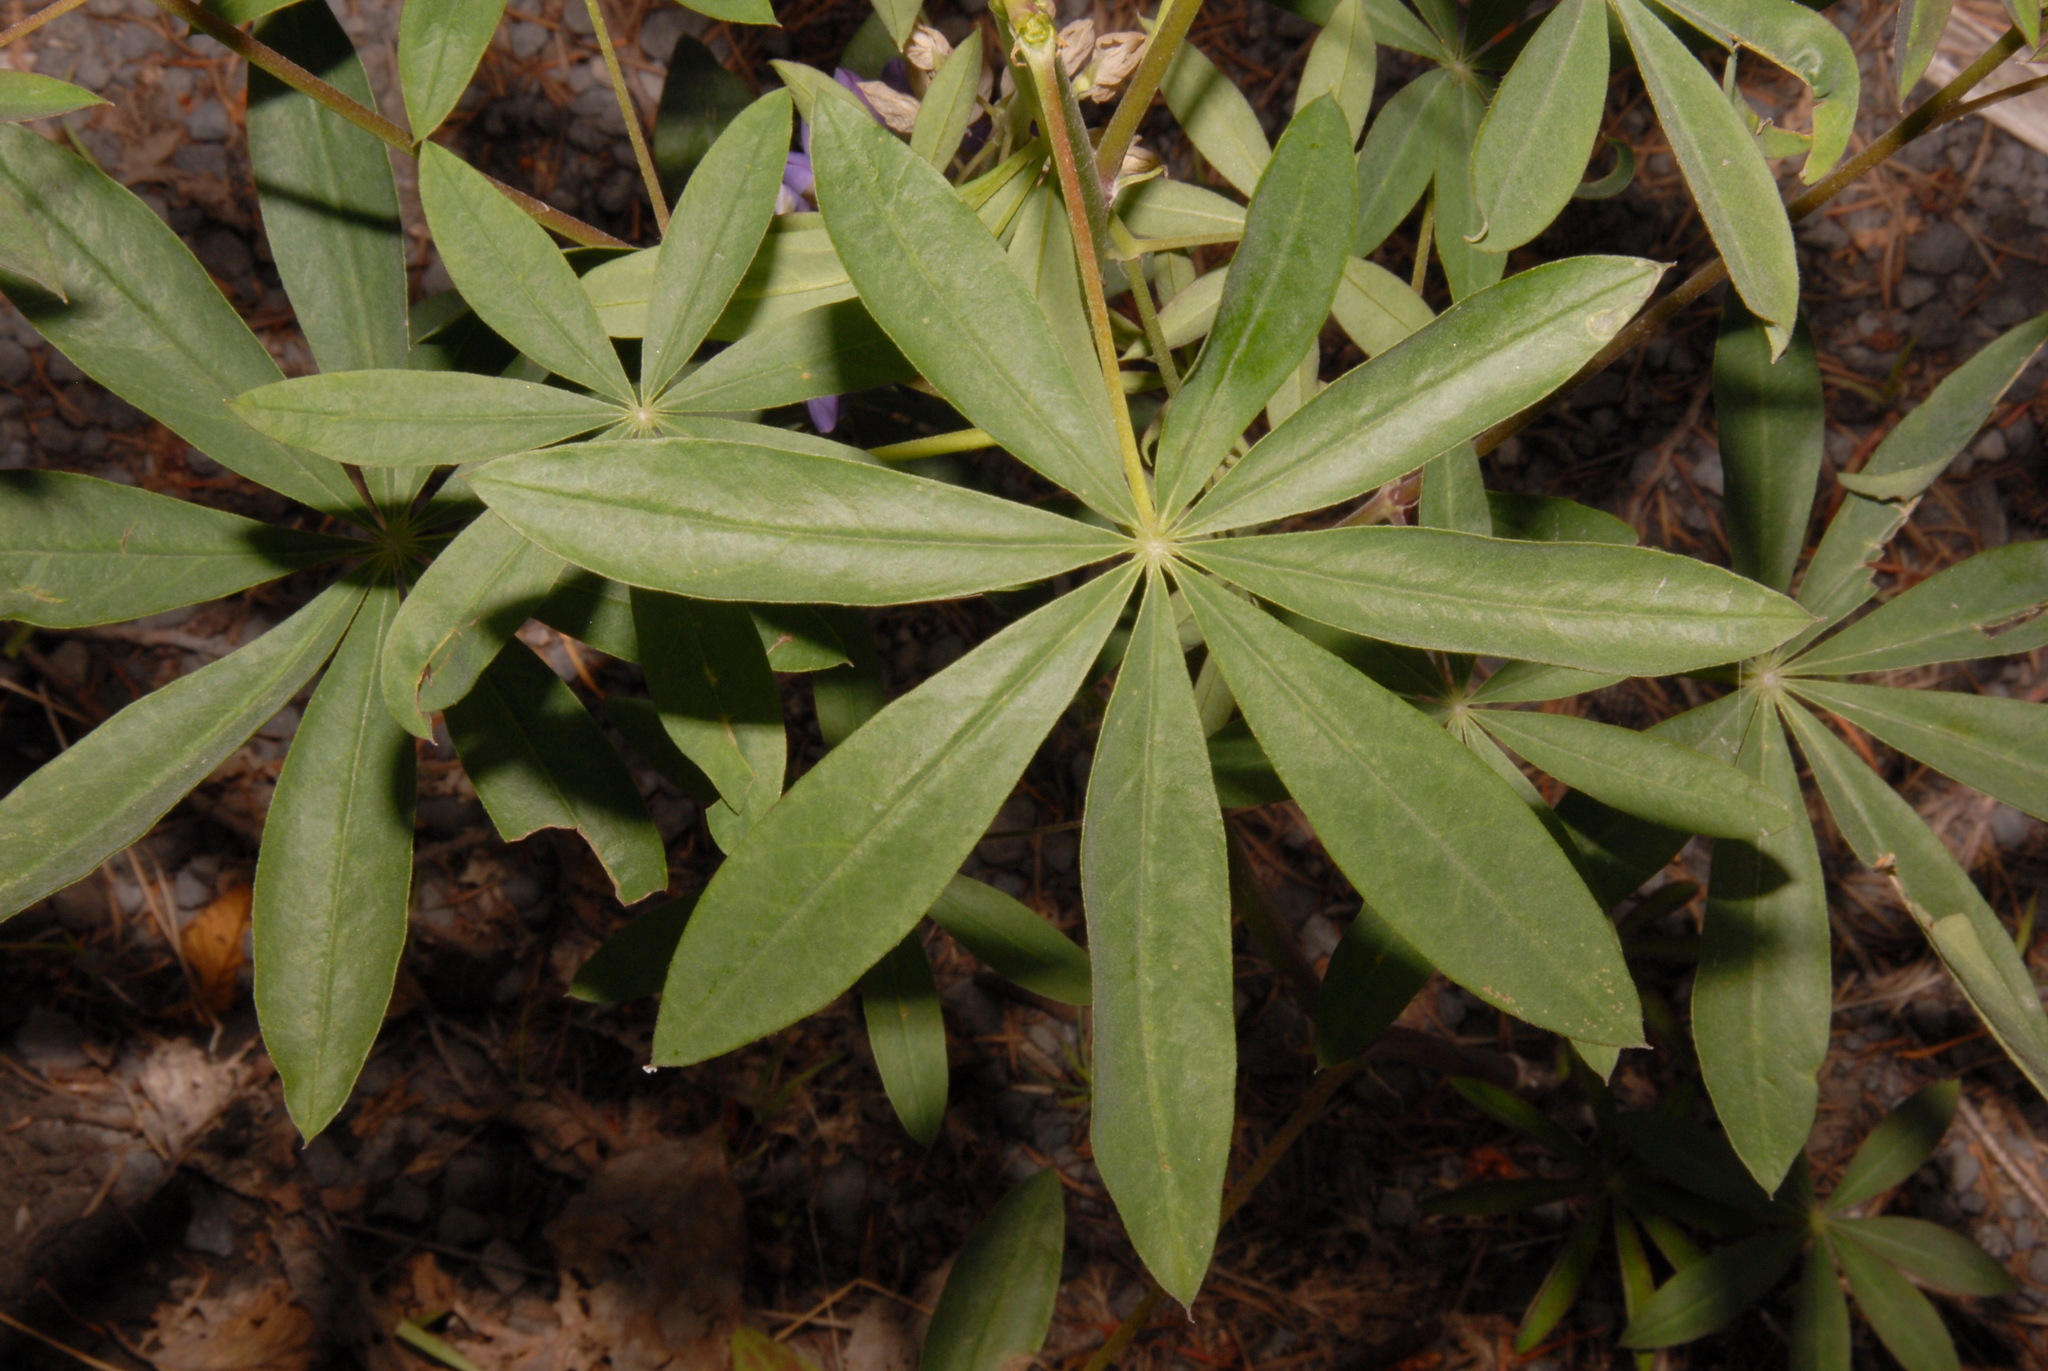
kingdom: Plantae
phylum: Tracheophyta
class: Magnoliopsida
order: Fabales
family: Fabaceae
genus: Lupinus
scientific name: Lupinus latifolius
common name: Broad-leaved lupine
